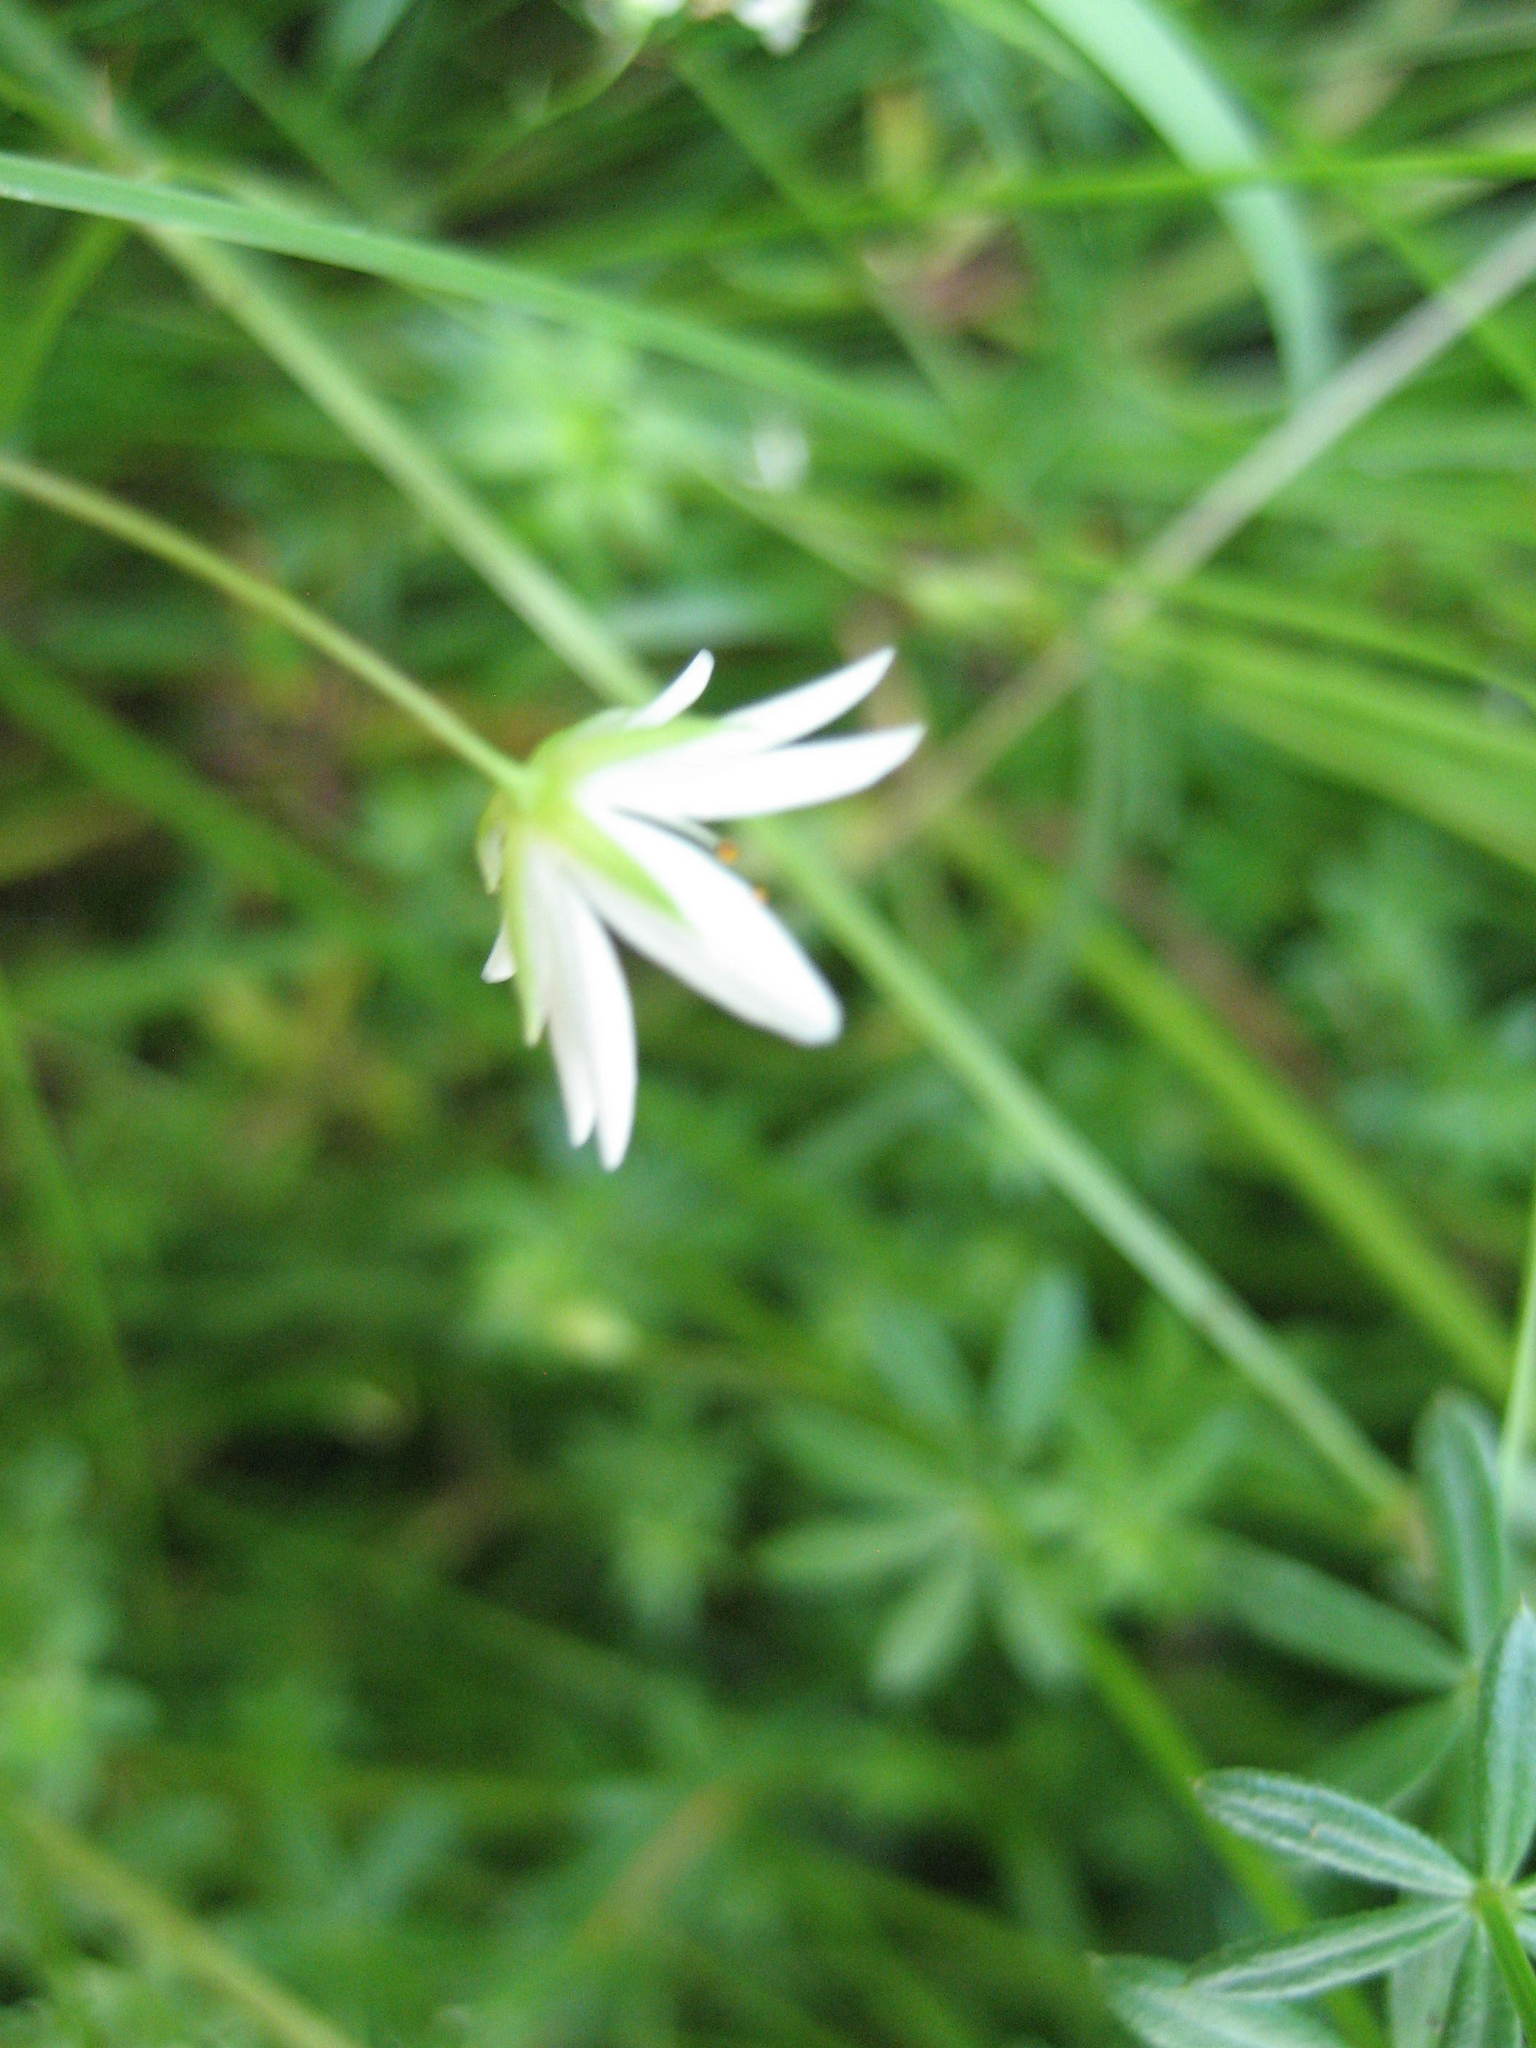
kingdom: Plantae
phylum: Tracheophyta
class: Magnoliopsida
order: Caryophyllales
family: Caryophyllaceae
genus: Stellaria
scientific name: Stellaria graminea
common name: Grass-like starwort
